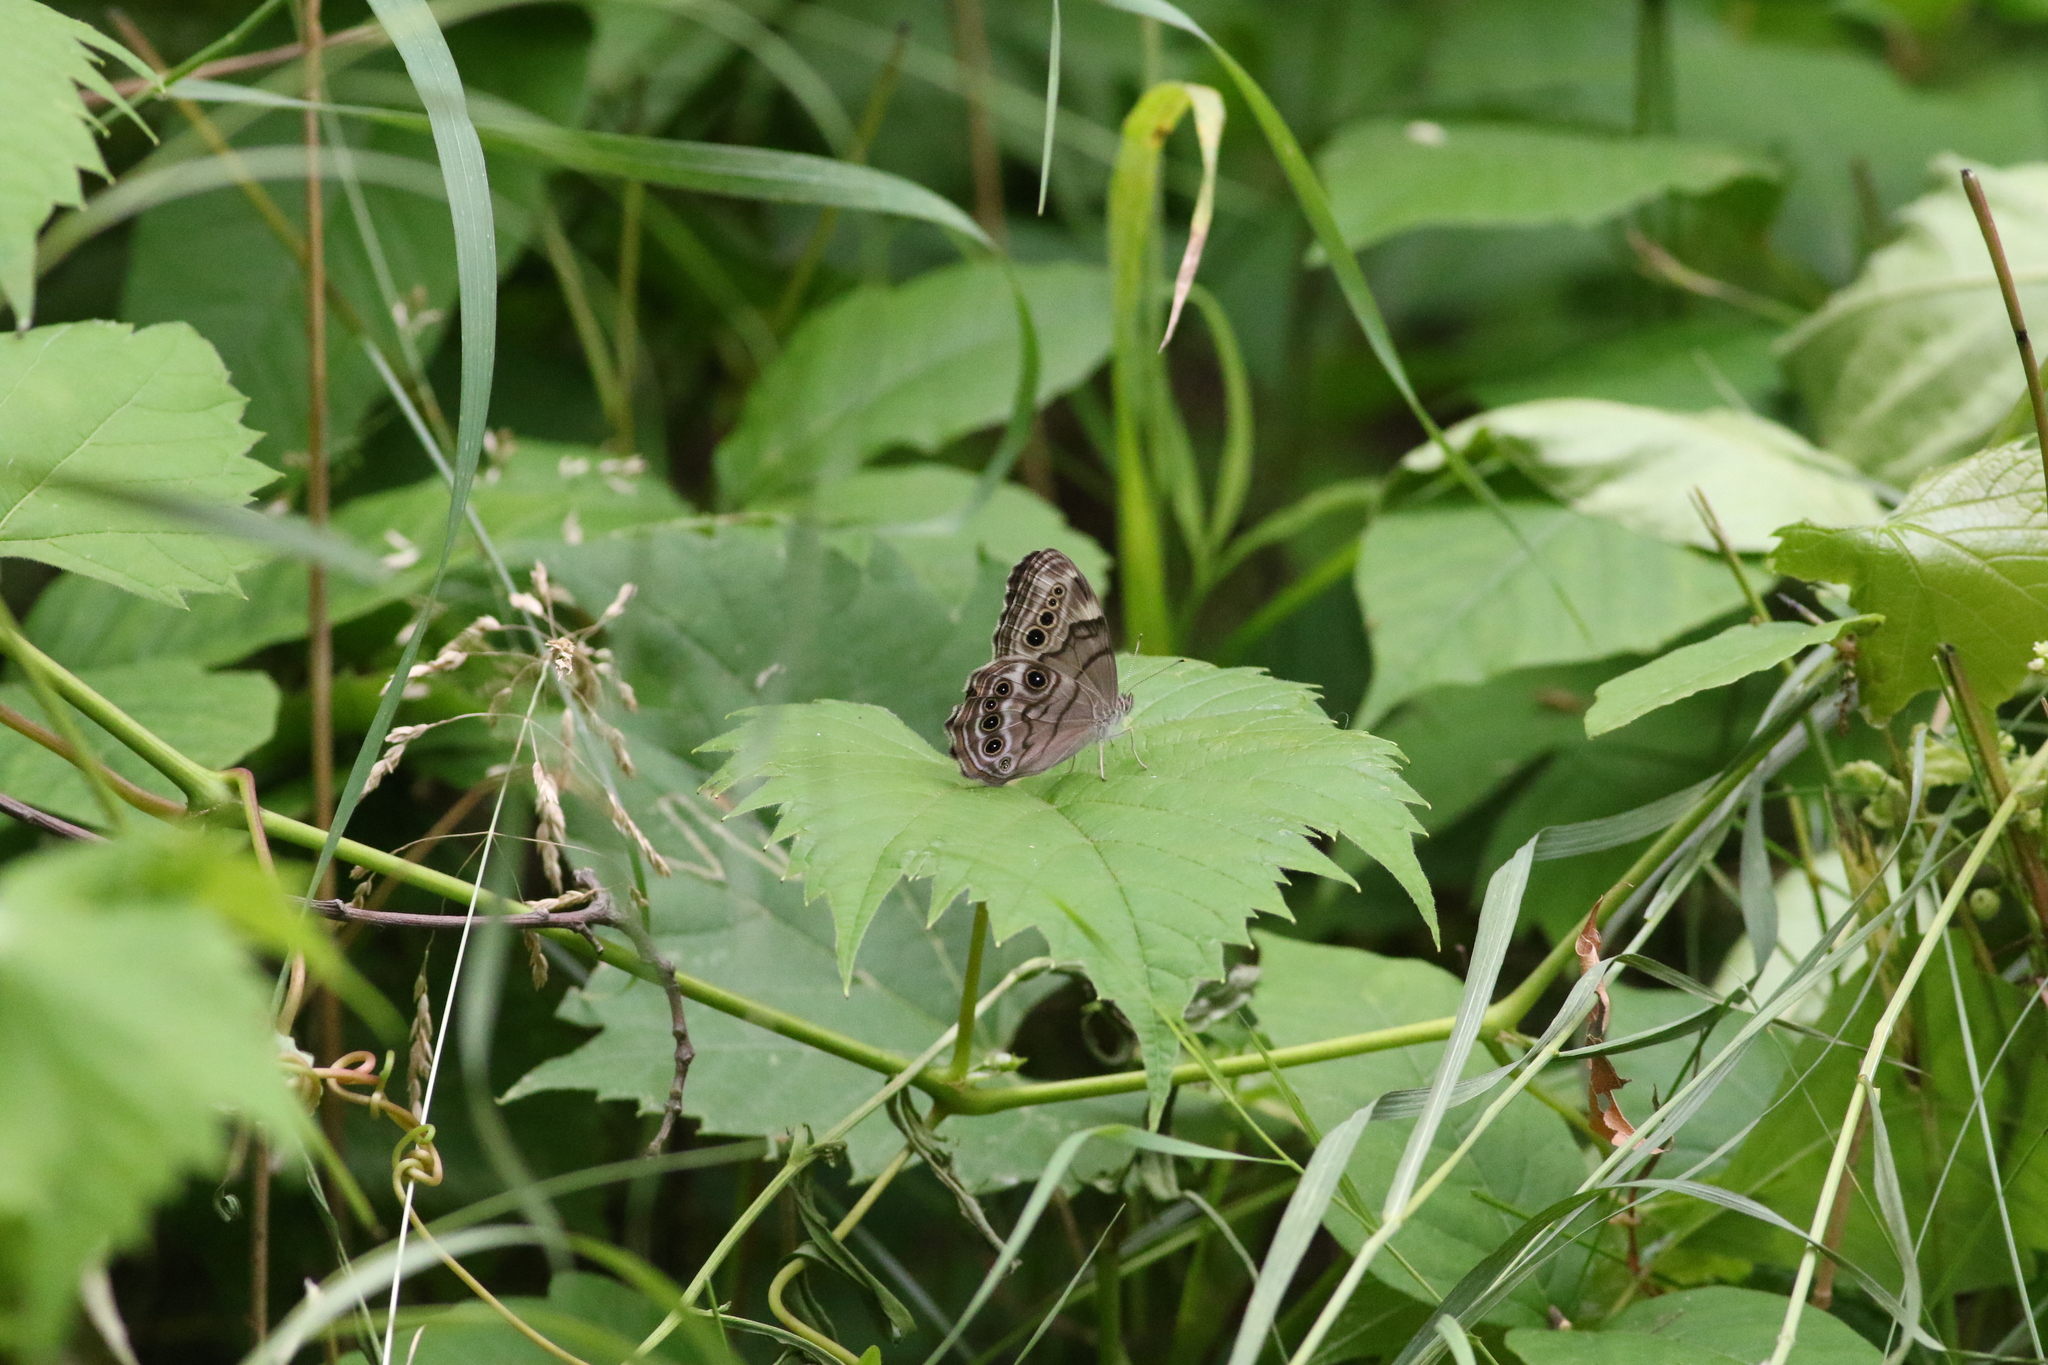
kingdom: Animalia
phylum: Arthropoda
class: Insecta
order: Lepidoptera
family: Nymphalidae
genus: Lethe
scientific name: Lethe anthedon
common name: Northern pearly-eye
